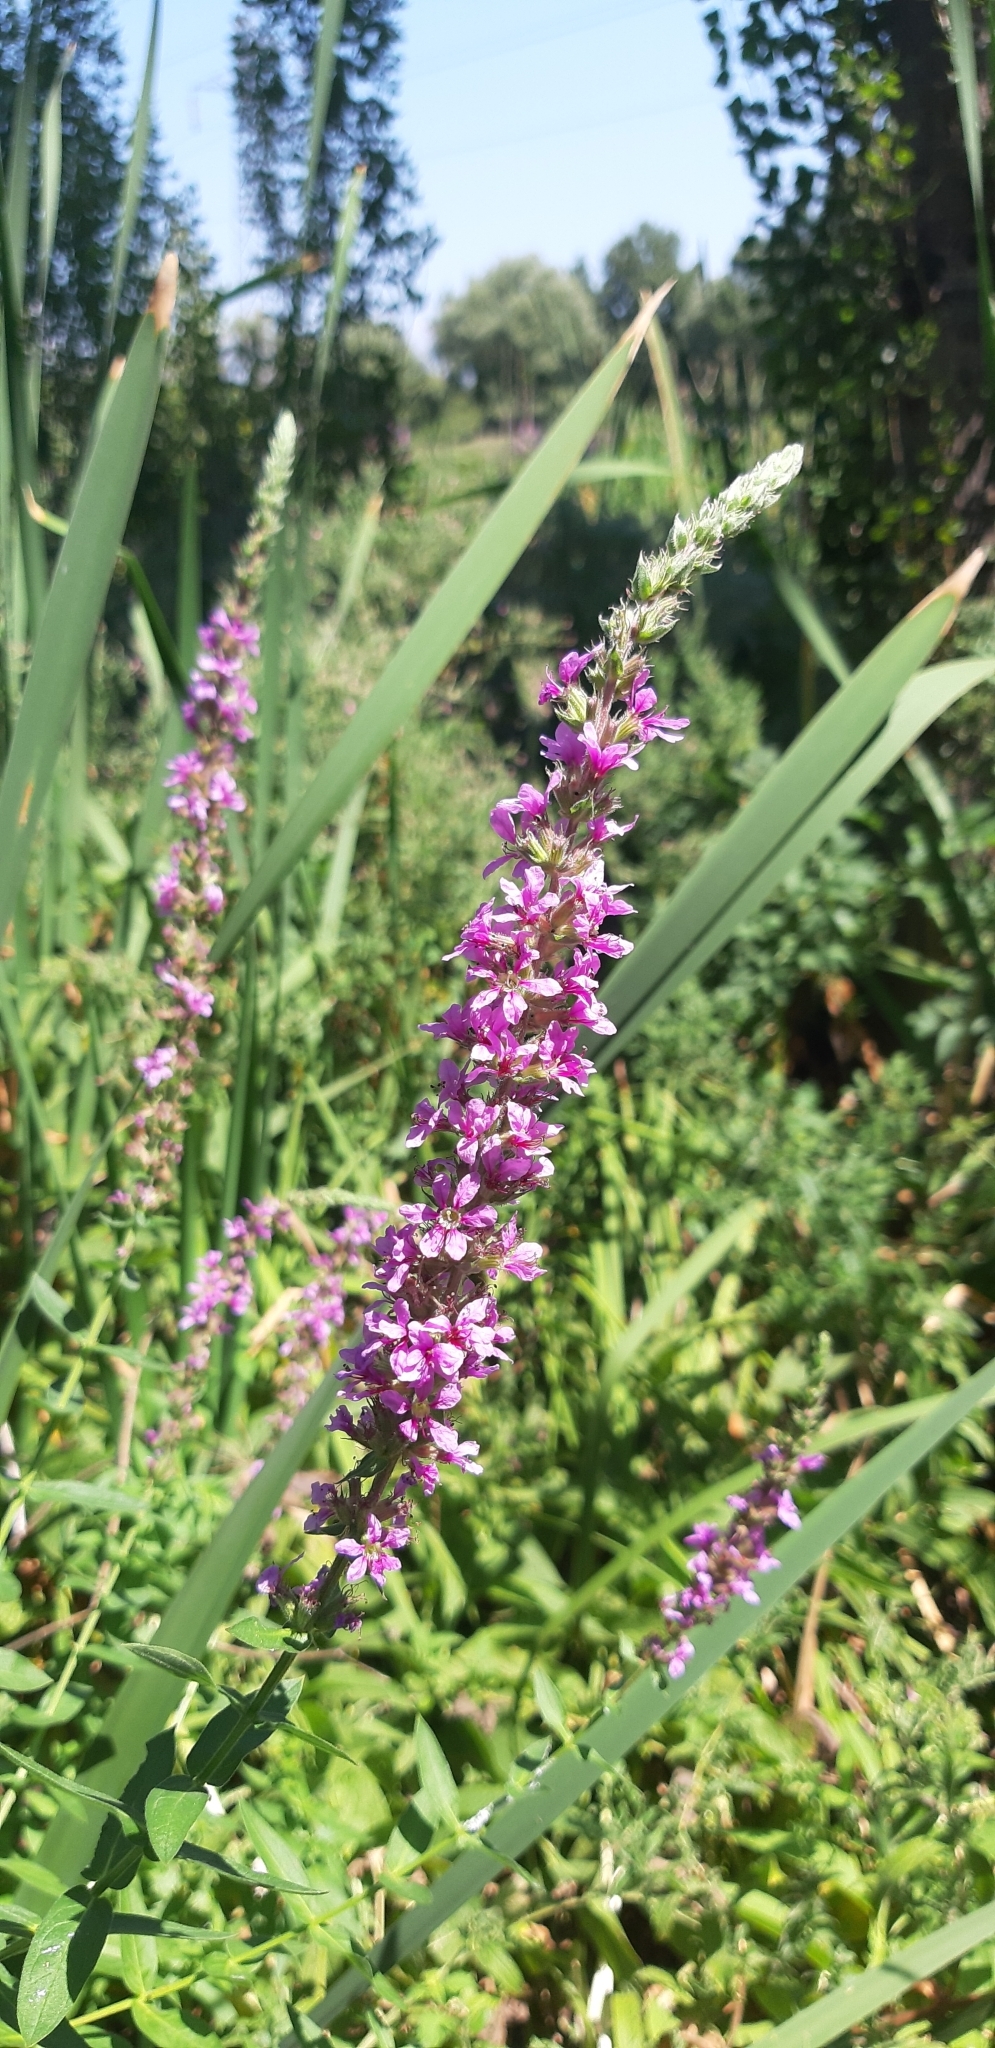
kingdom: Plantae
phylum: Tracheophyta
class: Magnoliopsida
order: Myrtales
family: Lythraceae
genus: Lythrum
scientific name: Lythrum salicaria
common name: Purple loosestrife
